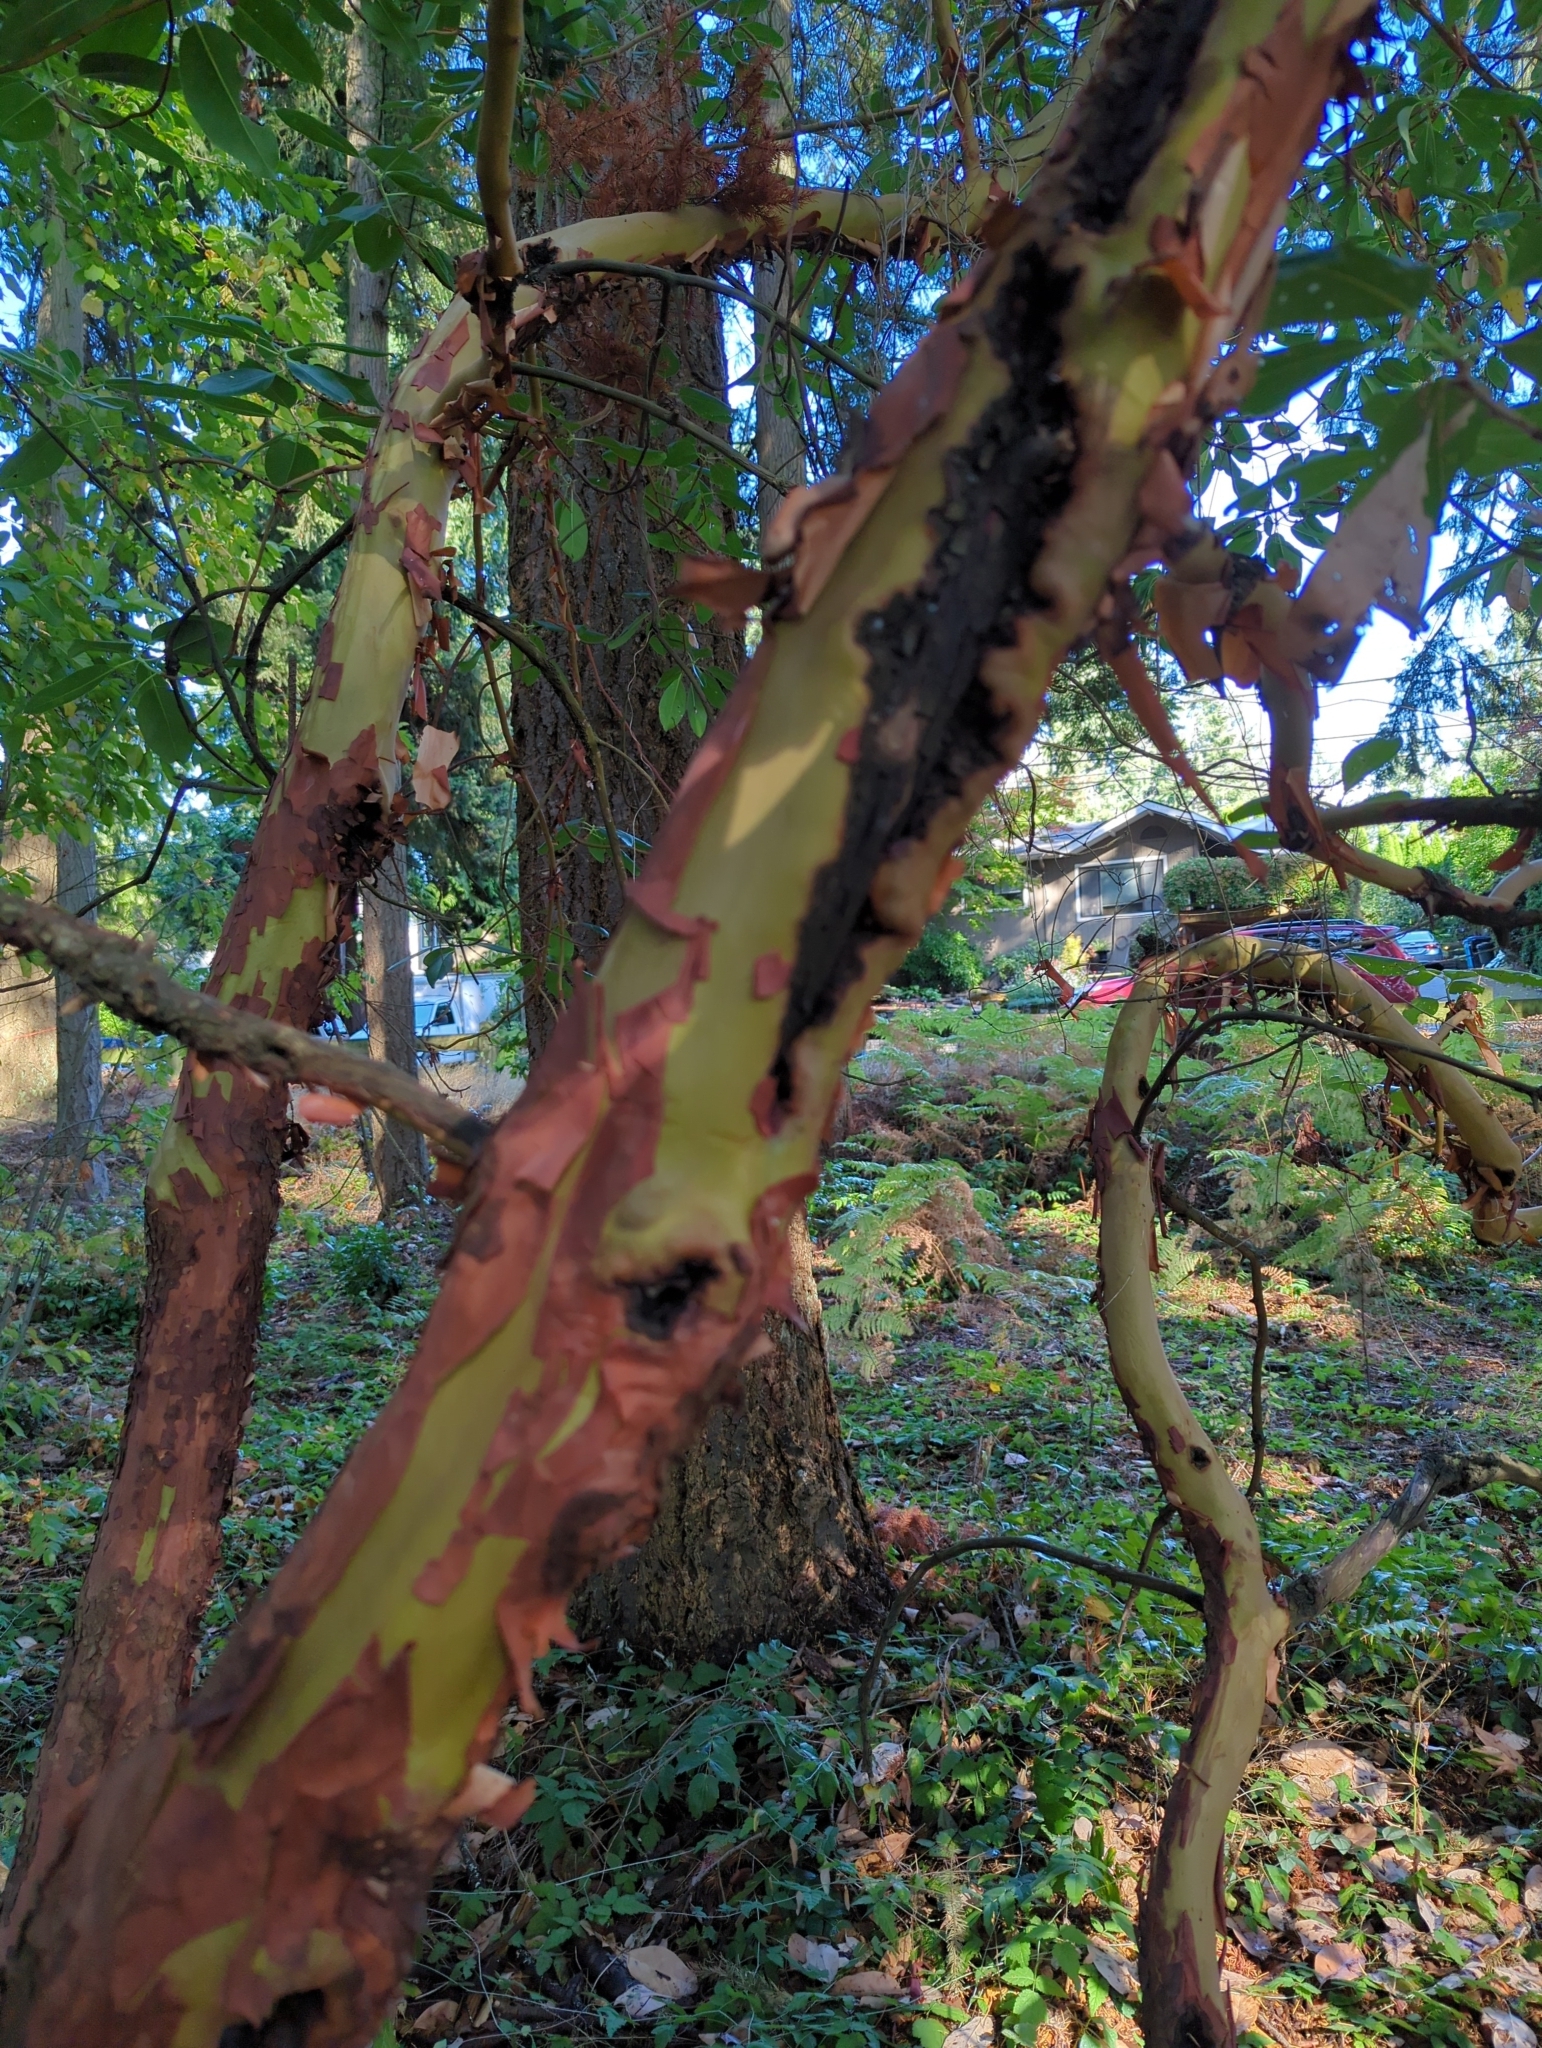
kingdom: Plantae
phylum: Tracheophyta
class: Magnoliopsida
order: Ericales
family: Ericaceae
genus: Arbutus
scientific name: Arbutus menziesii
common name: Pacific madrone
